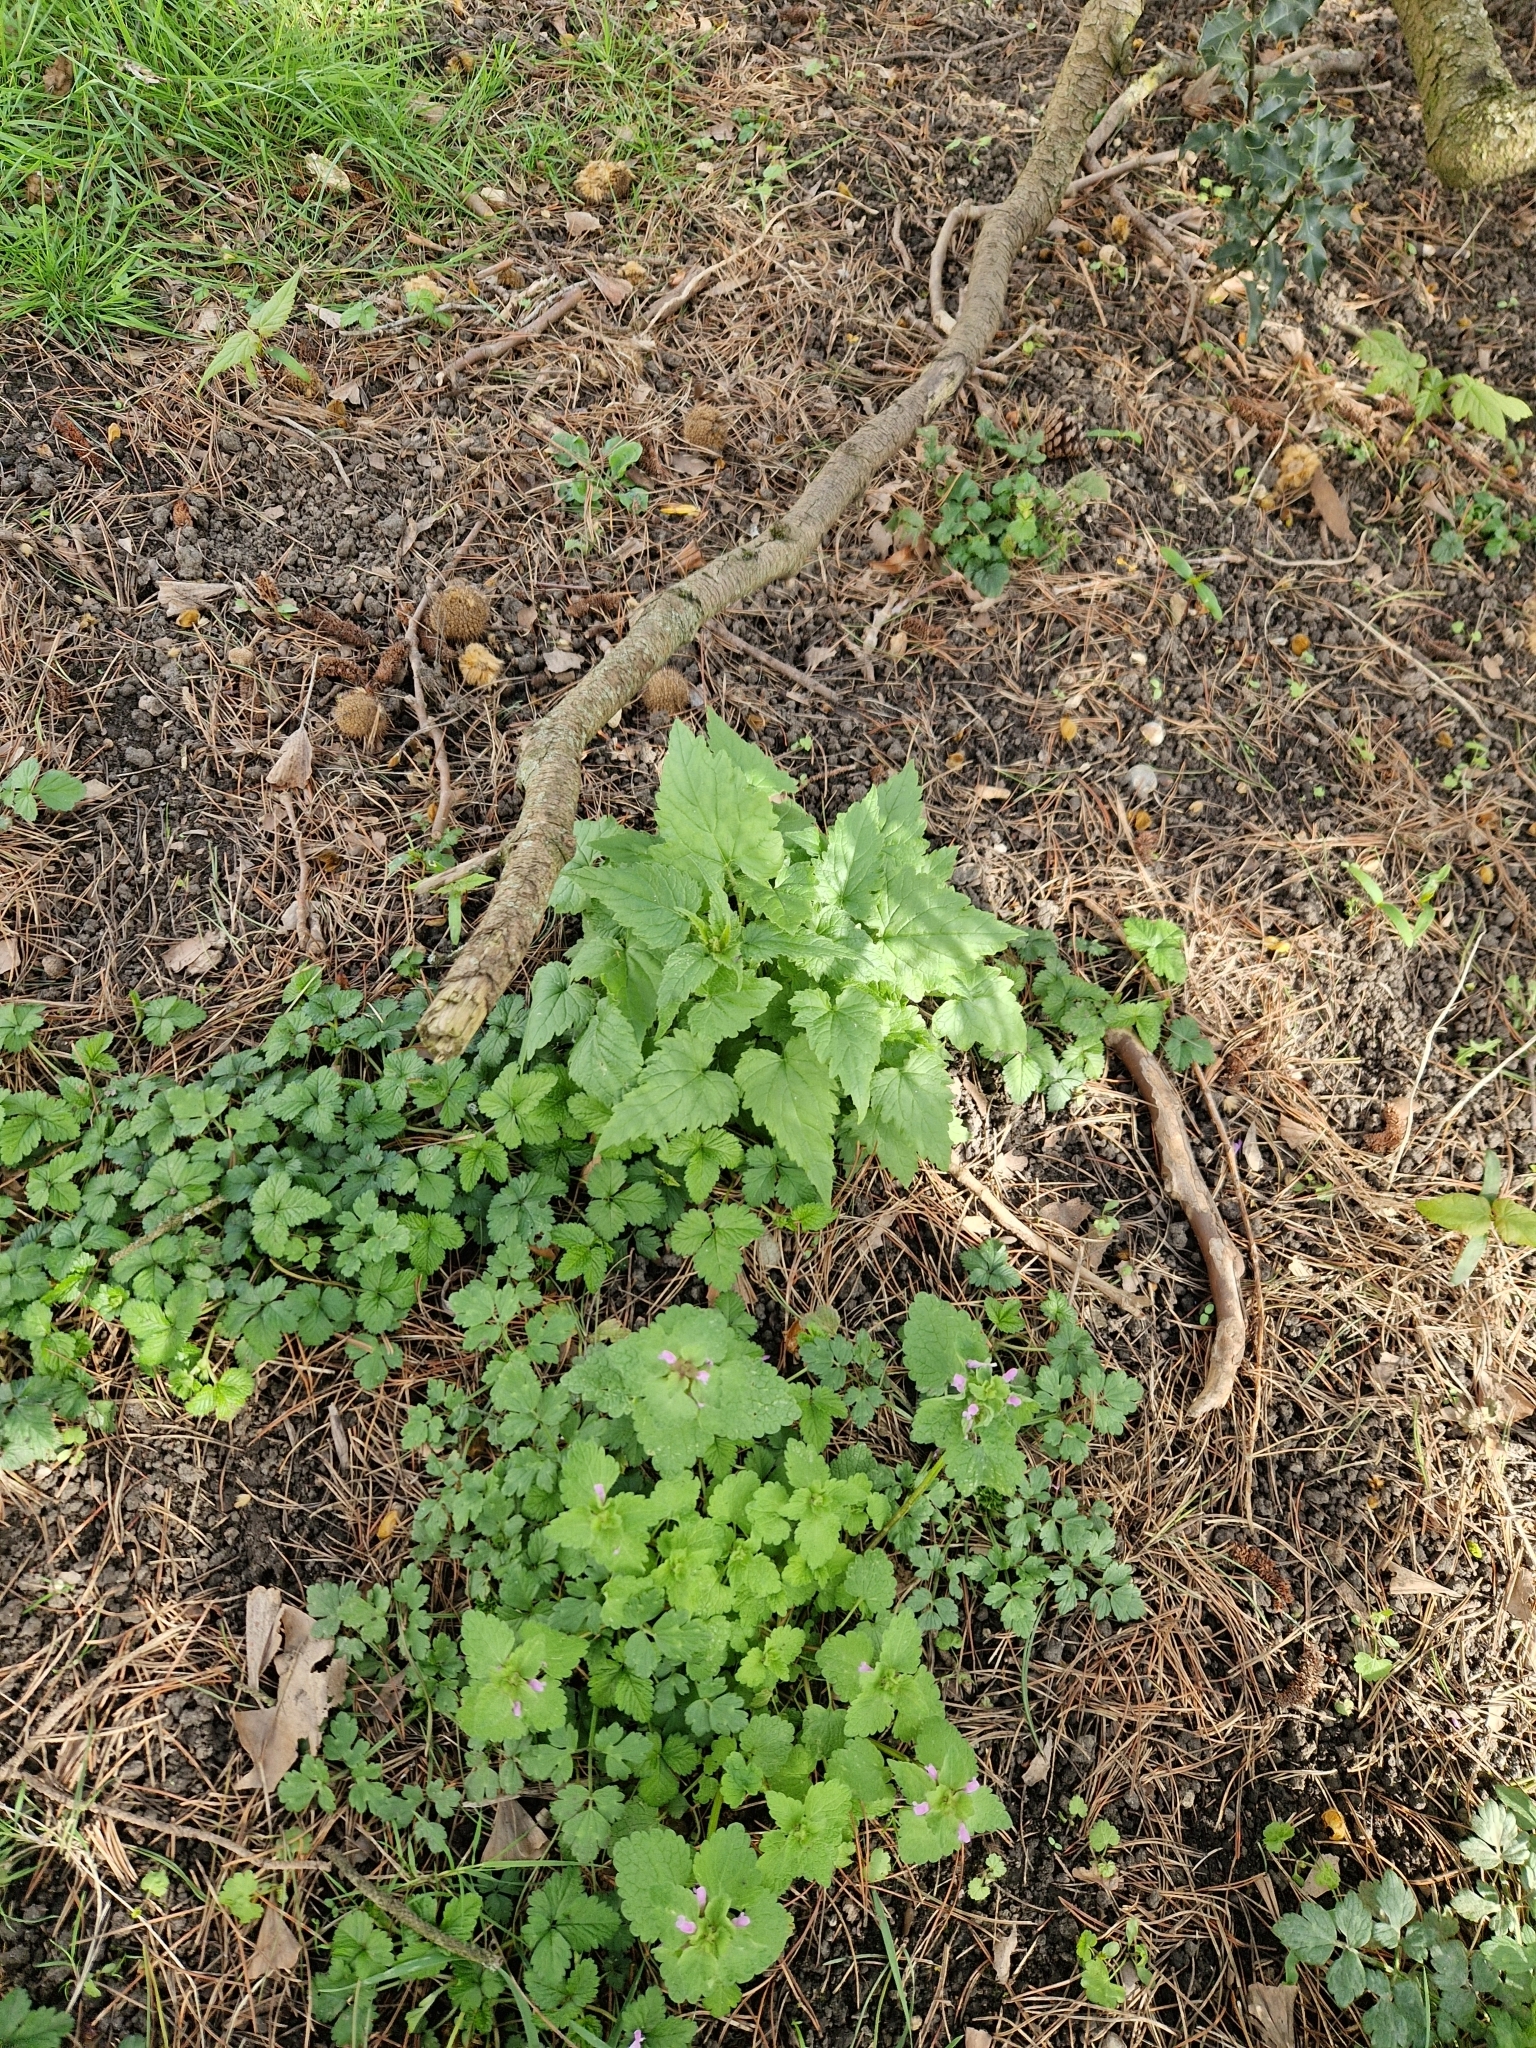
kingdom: Plantae
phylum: Tracheophyta
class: Magnoliopsida
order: Asterales
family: Campanulaceae
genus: Campanula
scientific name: Campanula trachelium
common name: Nettle-leaved bellflower
